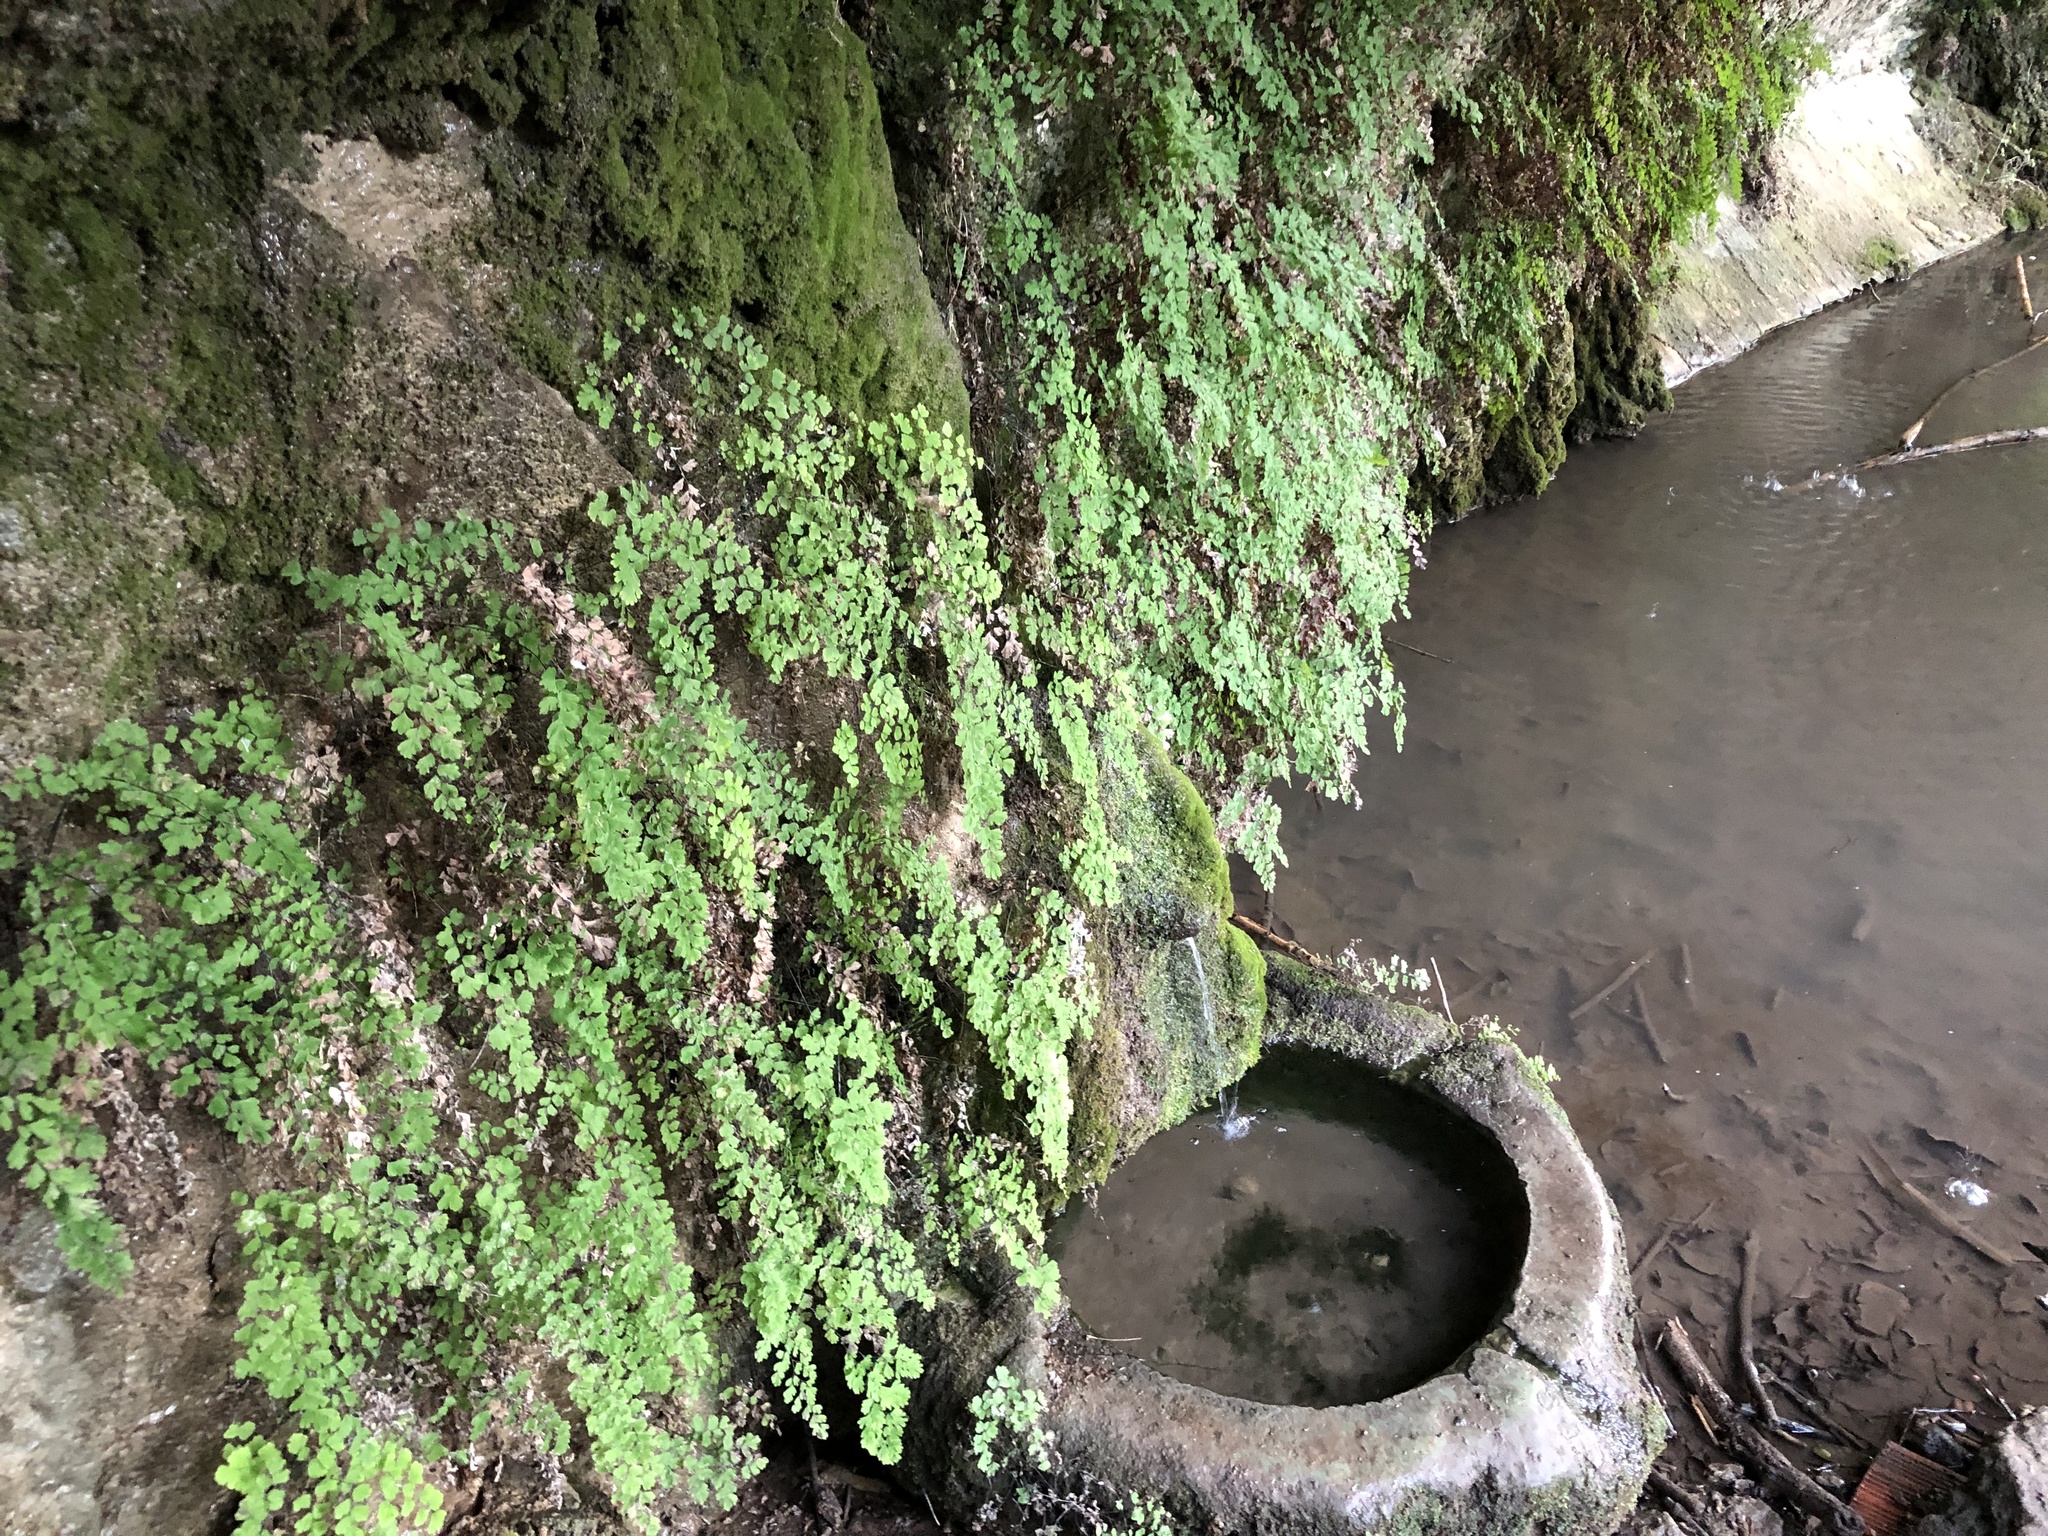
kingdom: Plantae
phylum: Tracheophyta
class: Polypodiopsida
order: Polypodiales
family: Pteridaceae
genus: Adiantum
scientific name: Adiantum capillus-veneris
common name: Maidenhair fern
